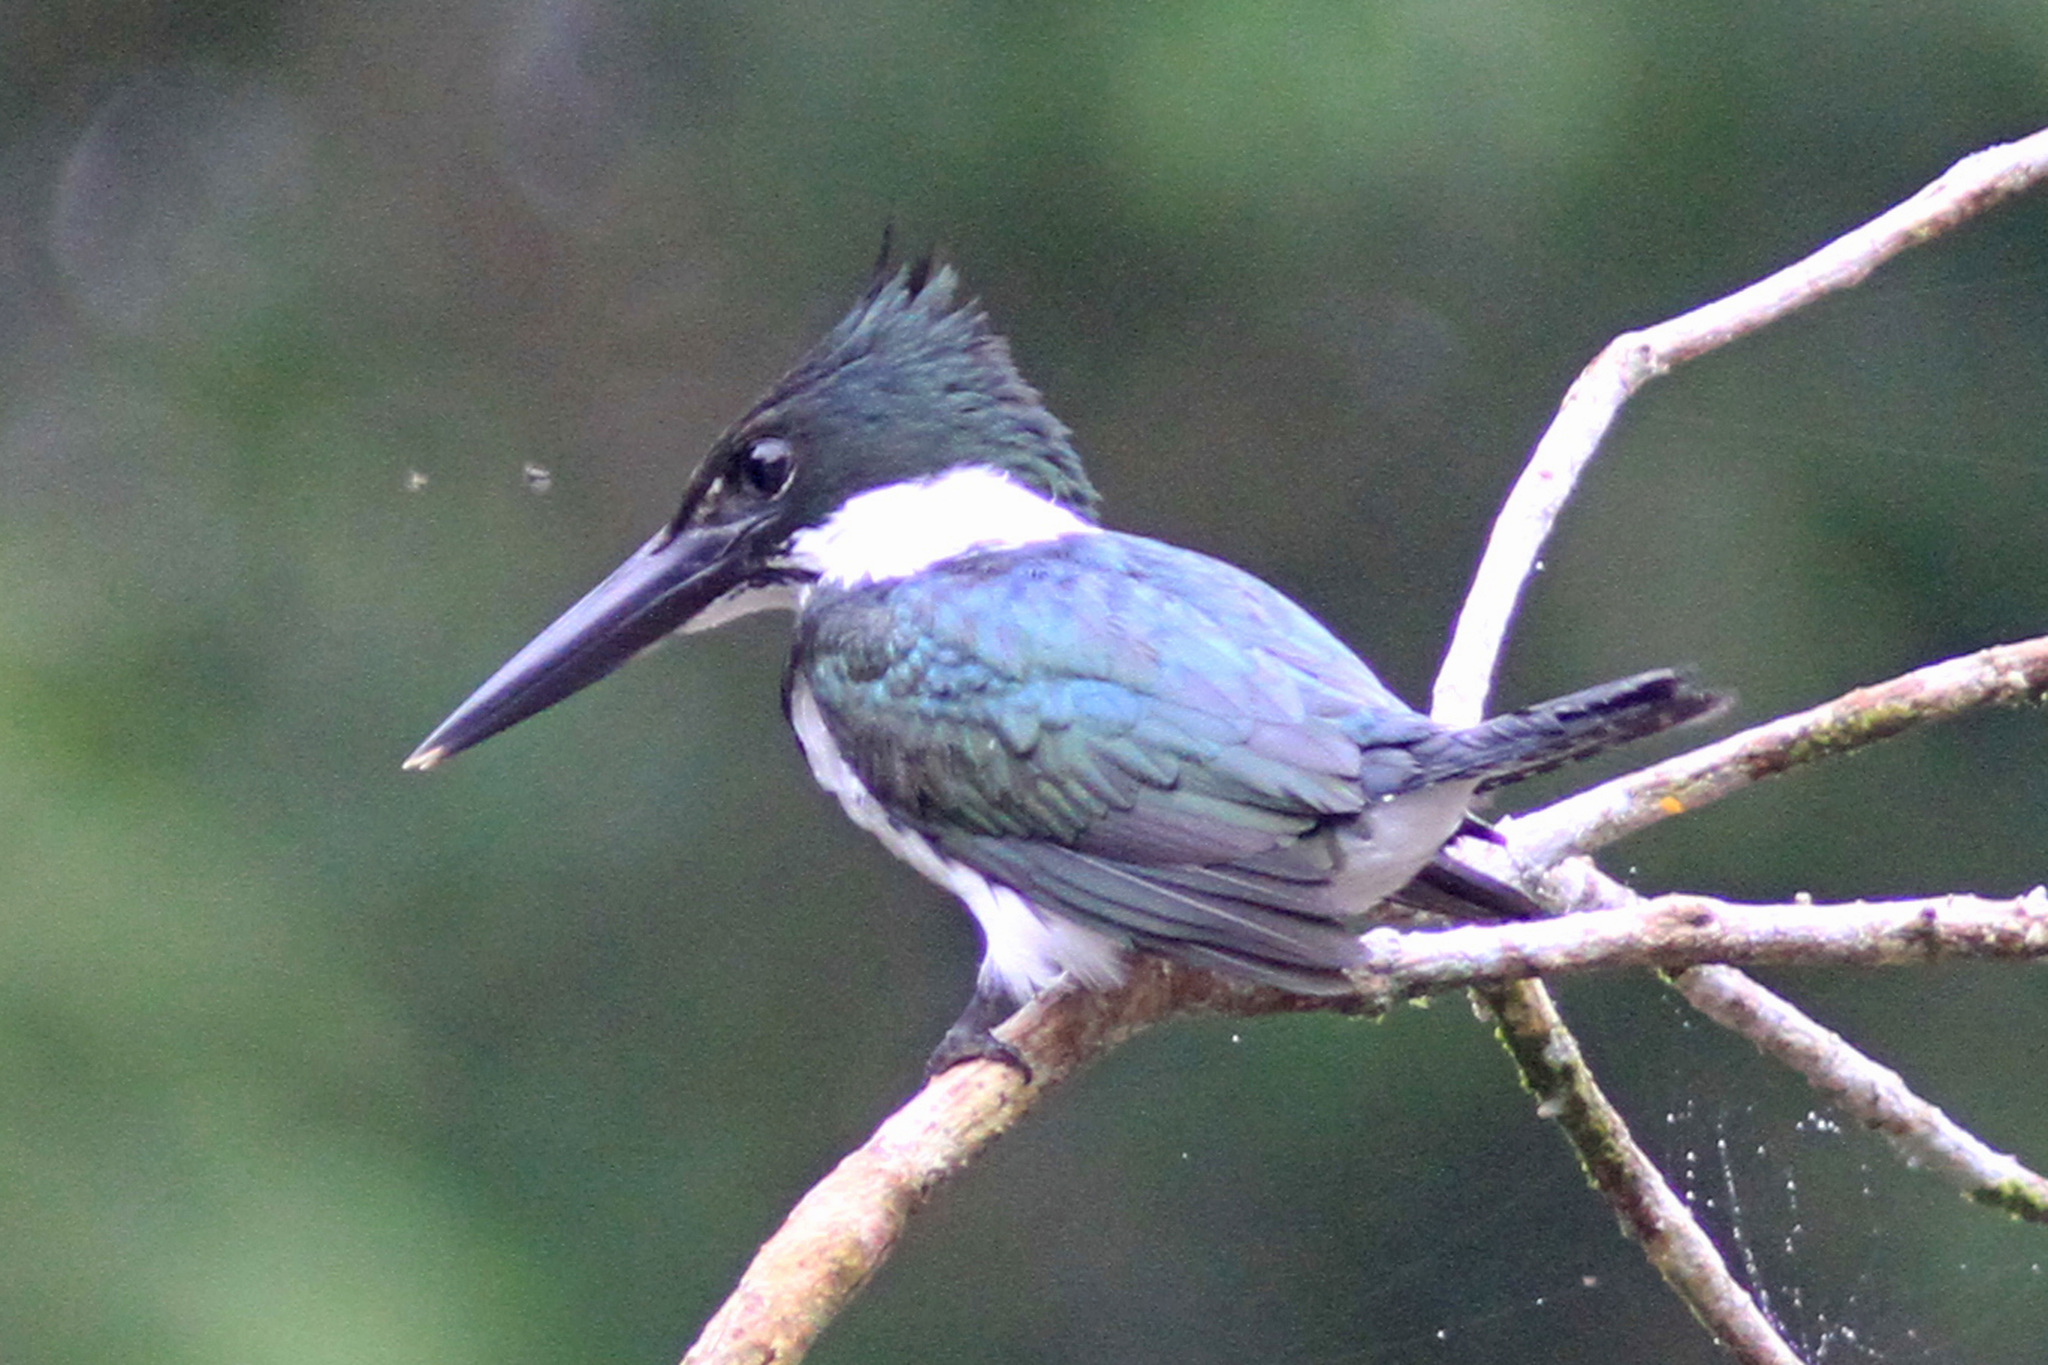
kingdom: Animalia
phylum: Chordata
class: Aves
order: Coraciiformes
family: Alcedinidae
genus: Chloroceryle
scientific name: Chloroceryle amazona
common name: Amazon kingfisher
